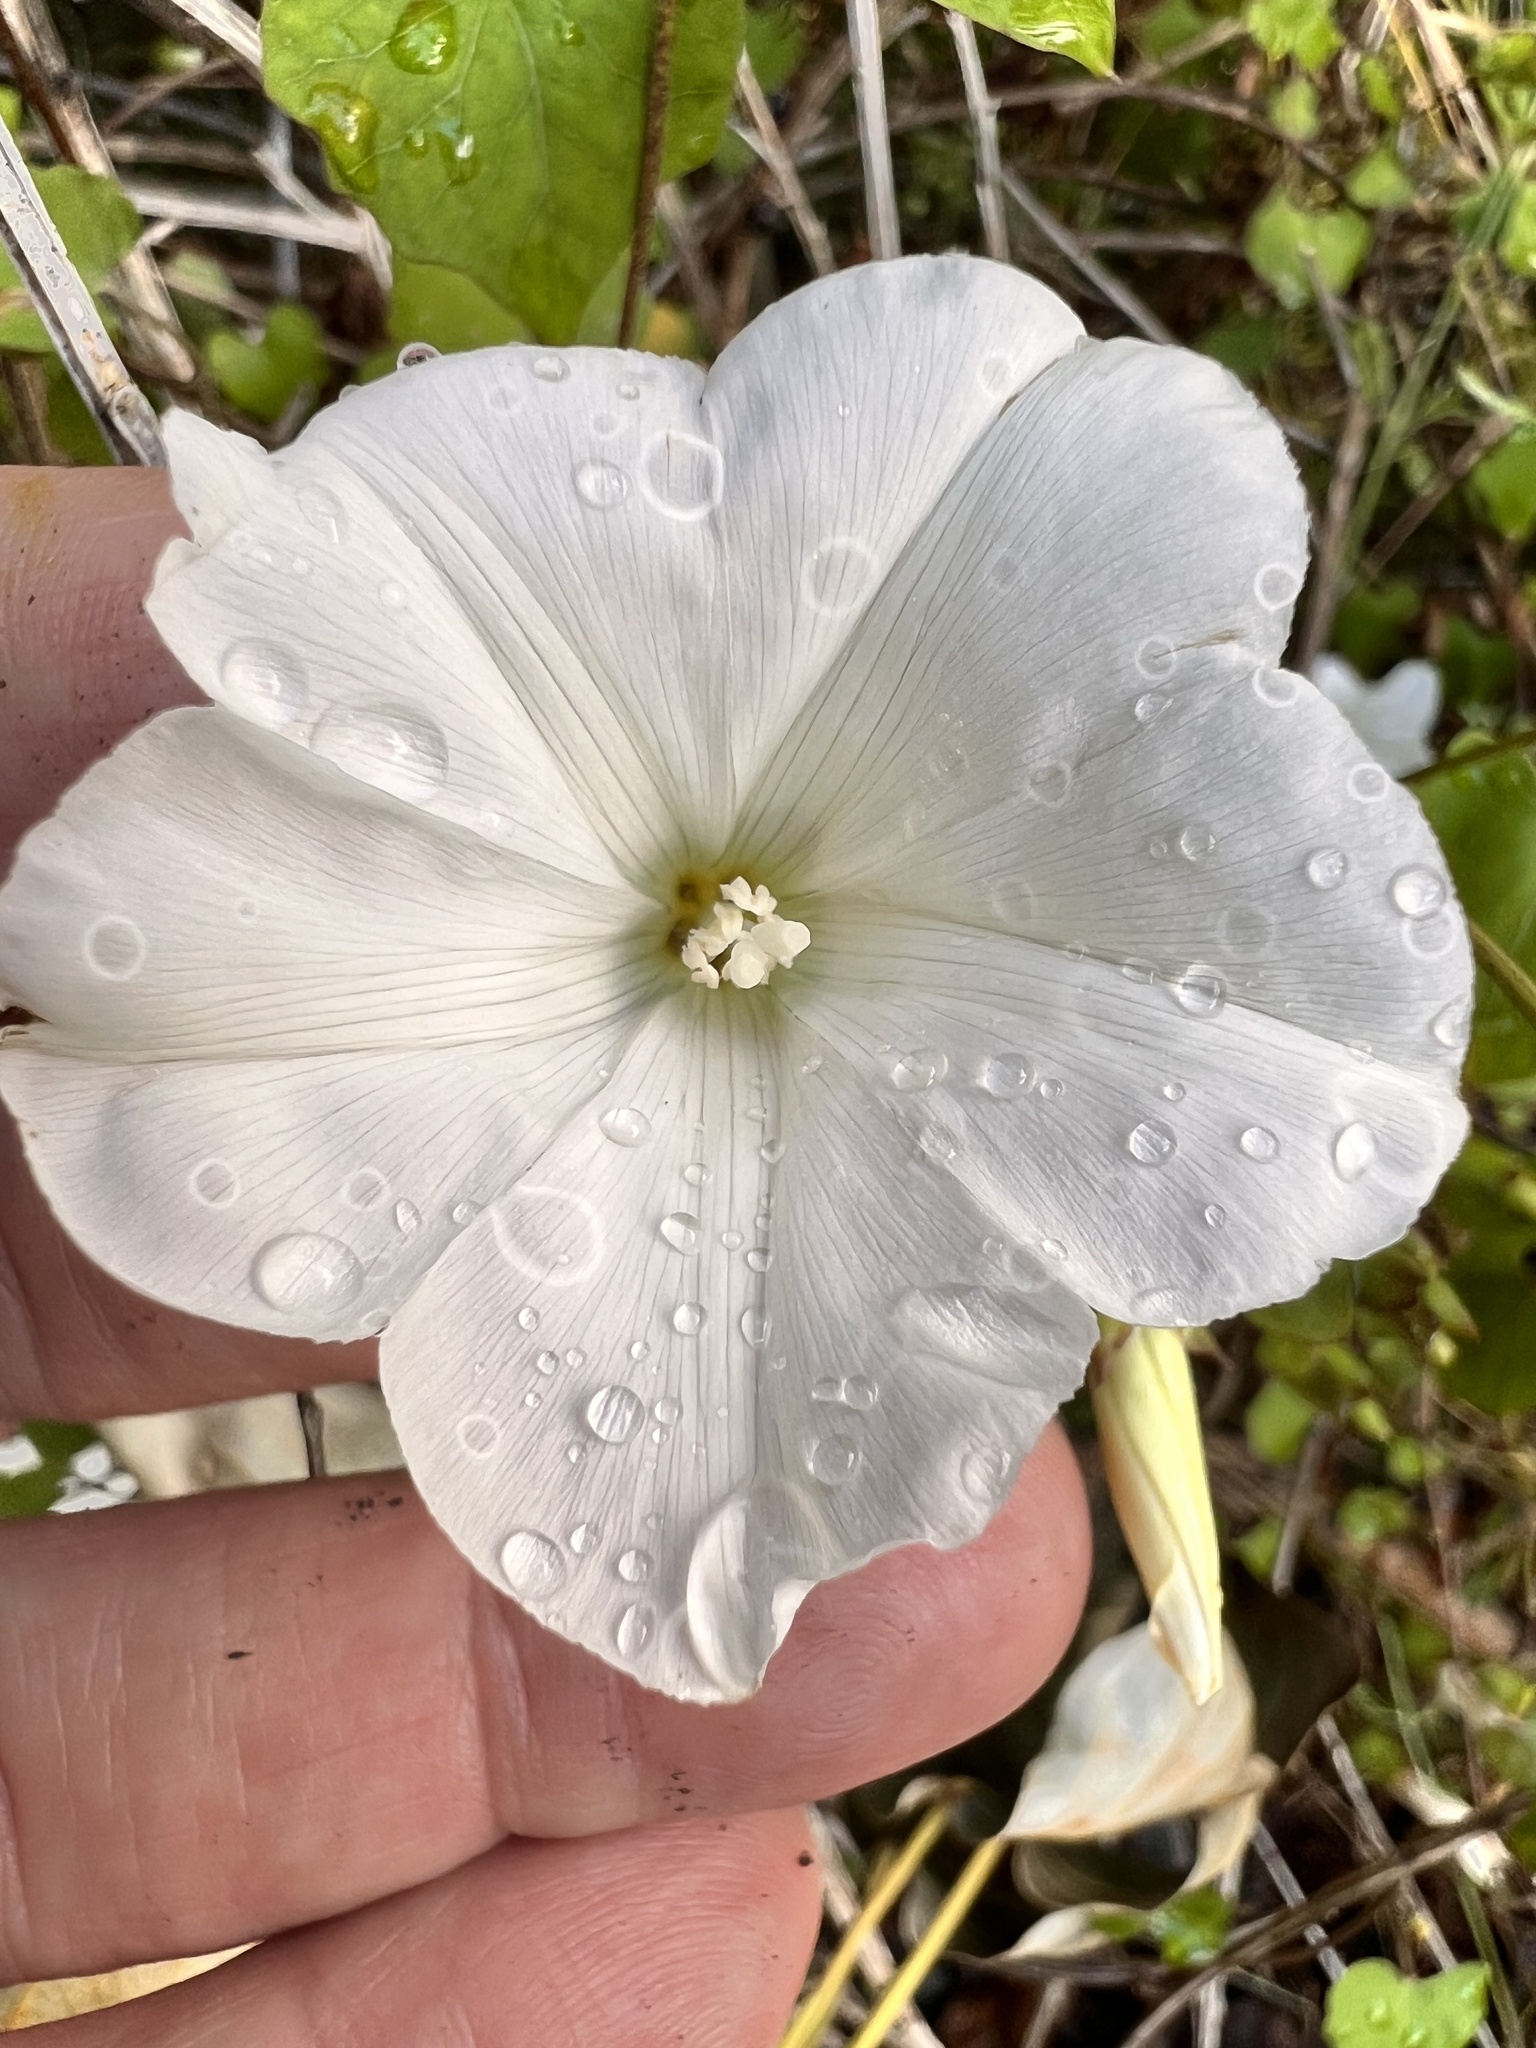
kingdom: Plantae
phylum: Tracheophyta
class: Magnoliopsida
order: Solanales
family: Convolvulaceae
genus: Calystegia
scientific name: Calystegia tuguriorum
